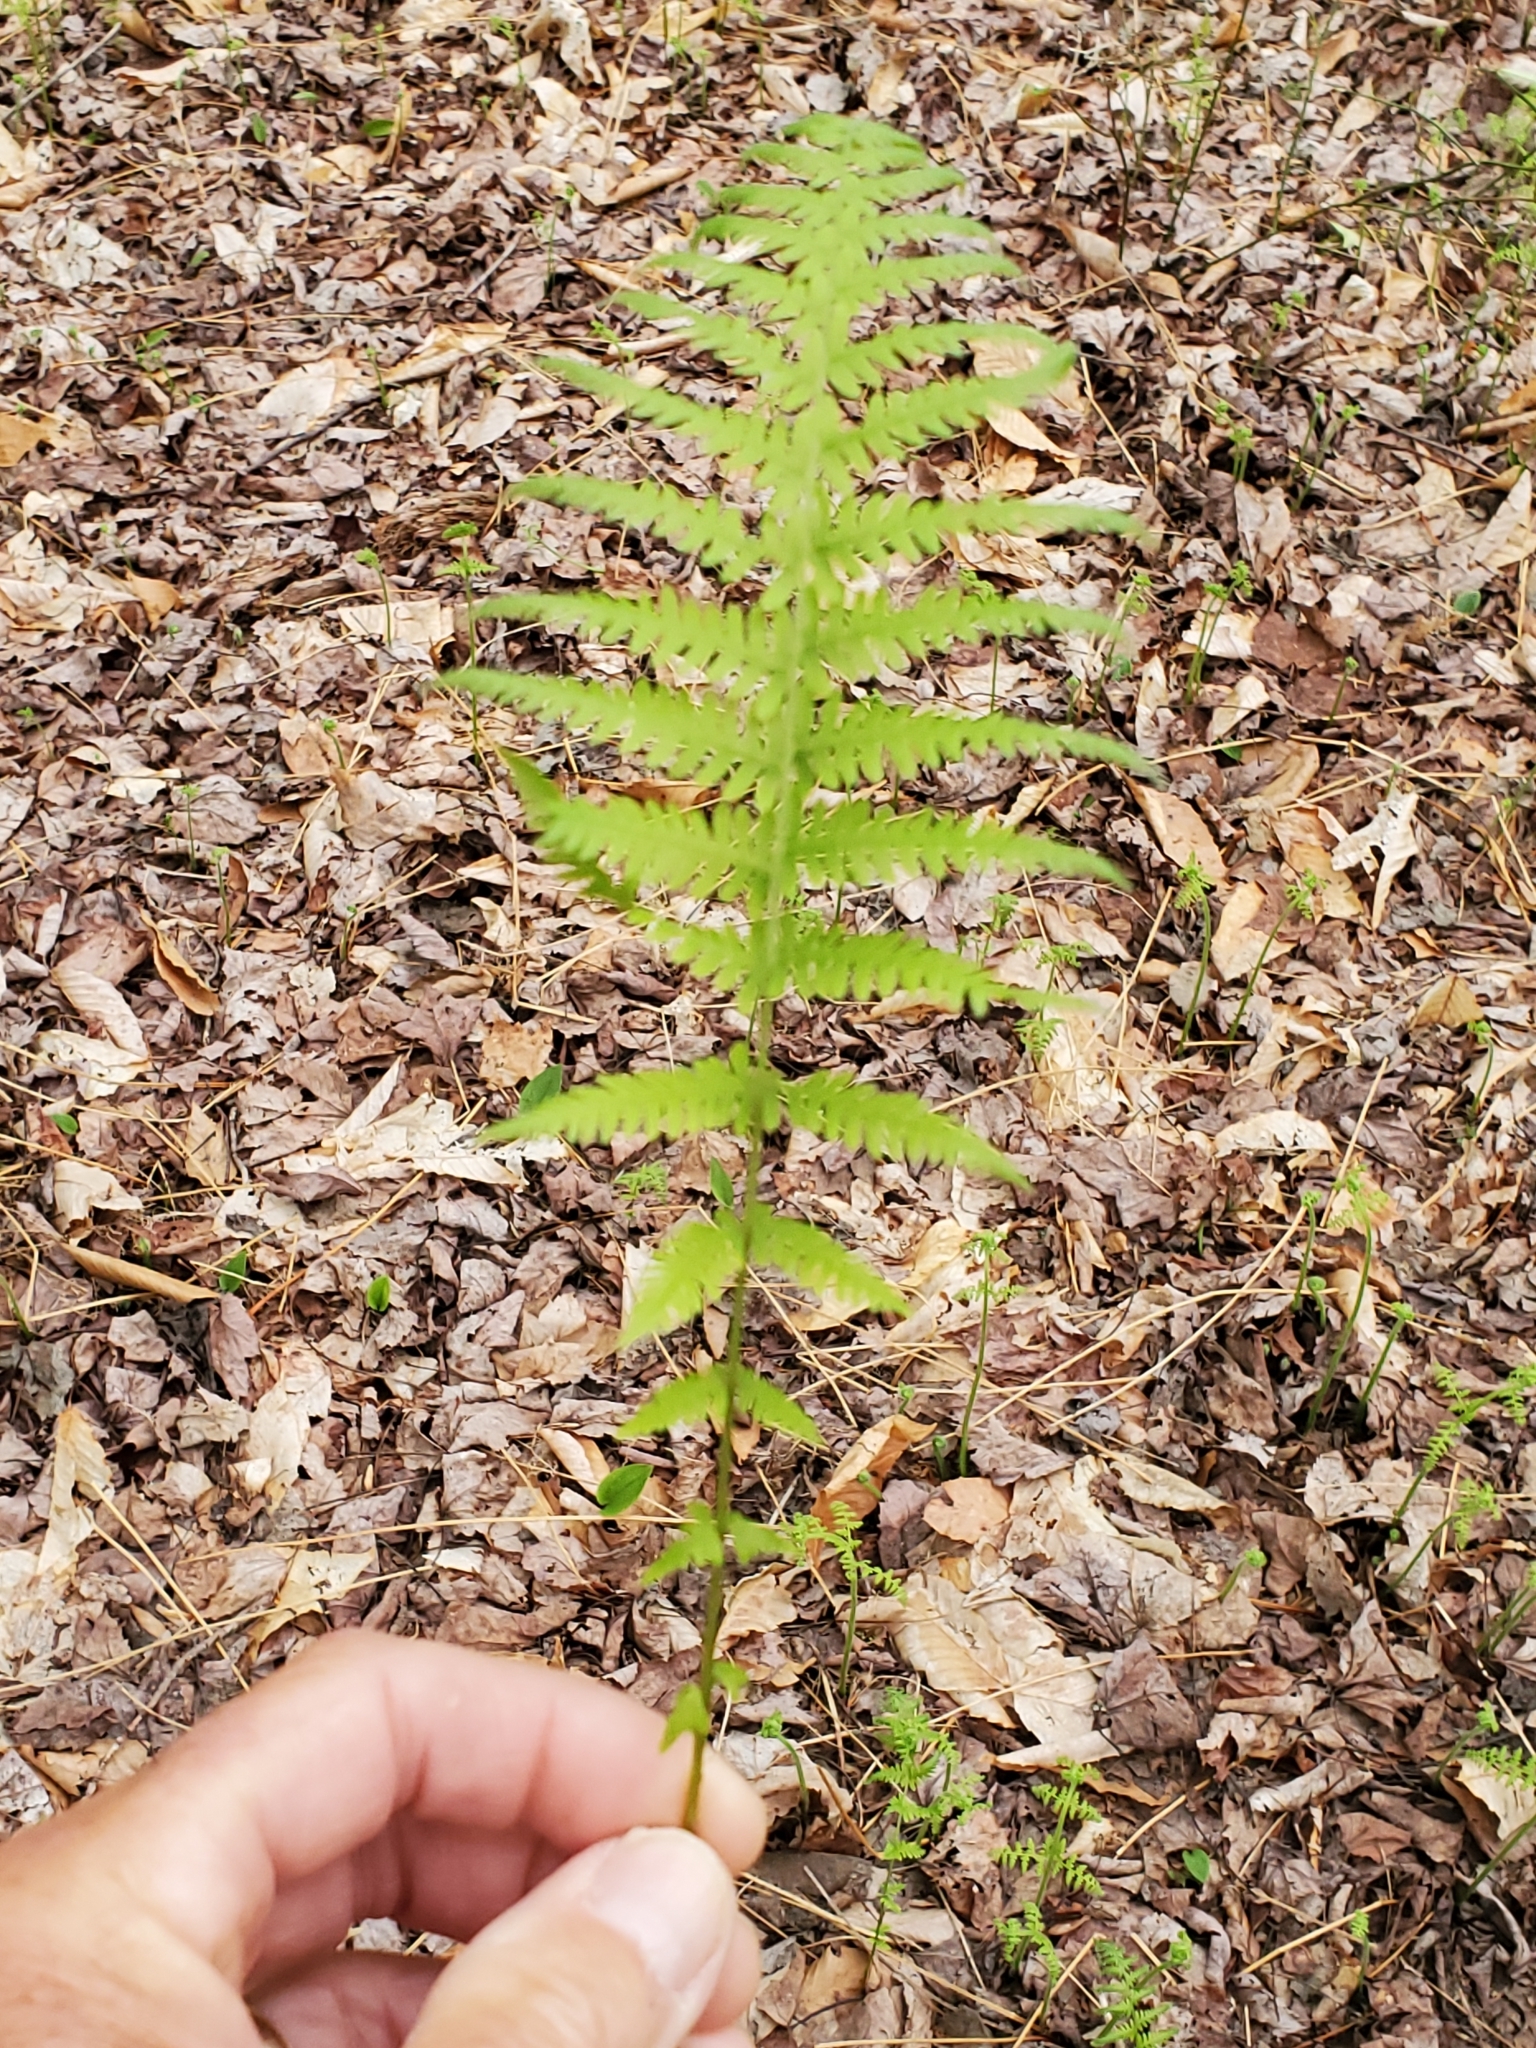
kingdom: Plantae
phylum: Tracheophyta
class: Polypodiopsida
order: Polypodiales
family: Thelypteridaceae
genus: Amauropelta
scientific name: Amauropelta noveboracensis
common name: New york fern
